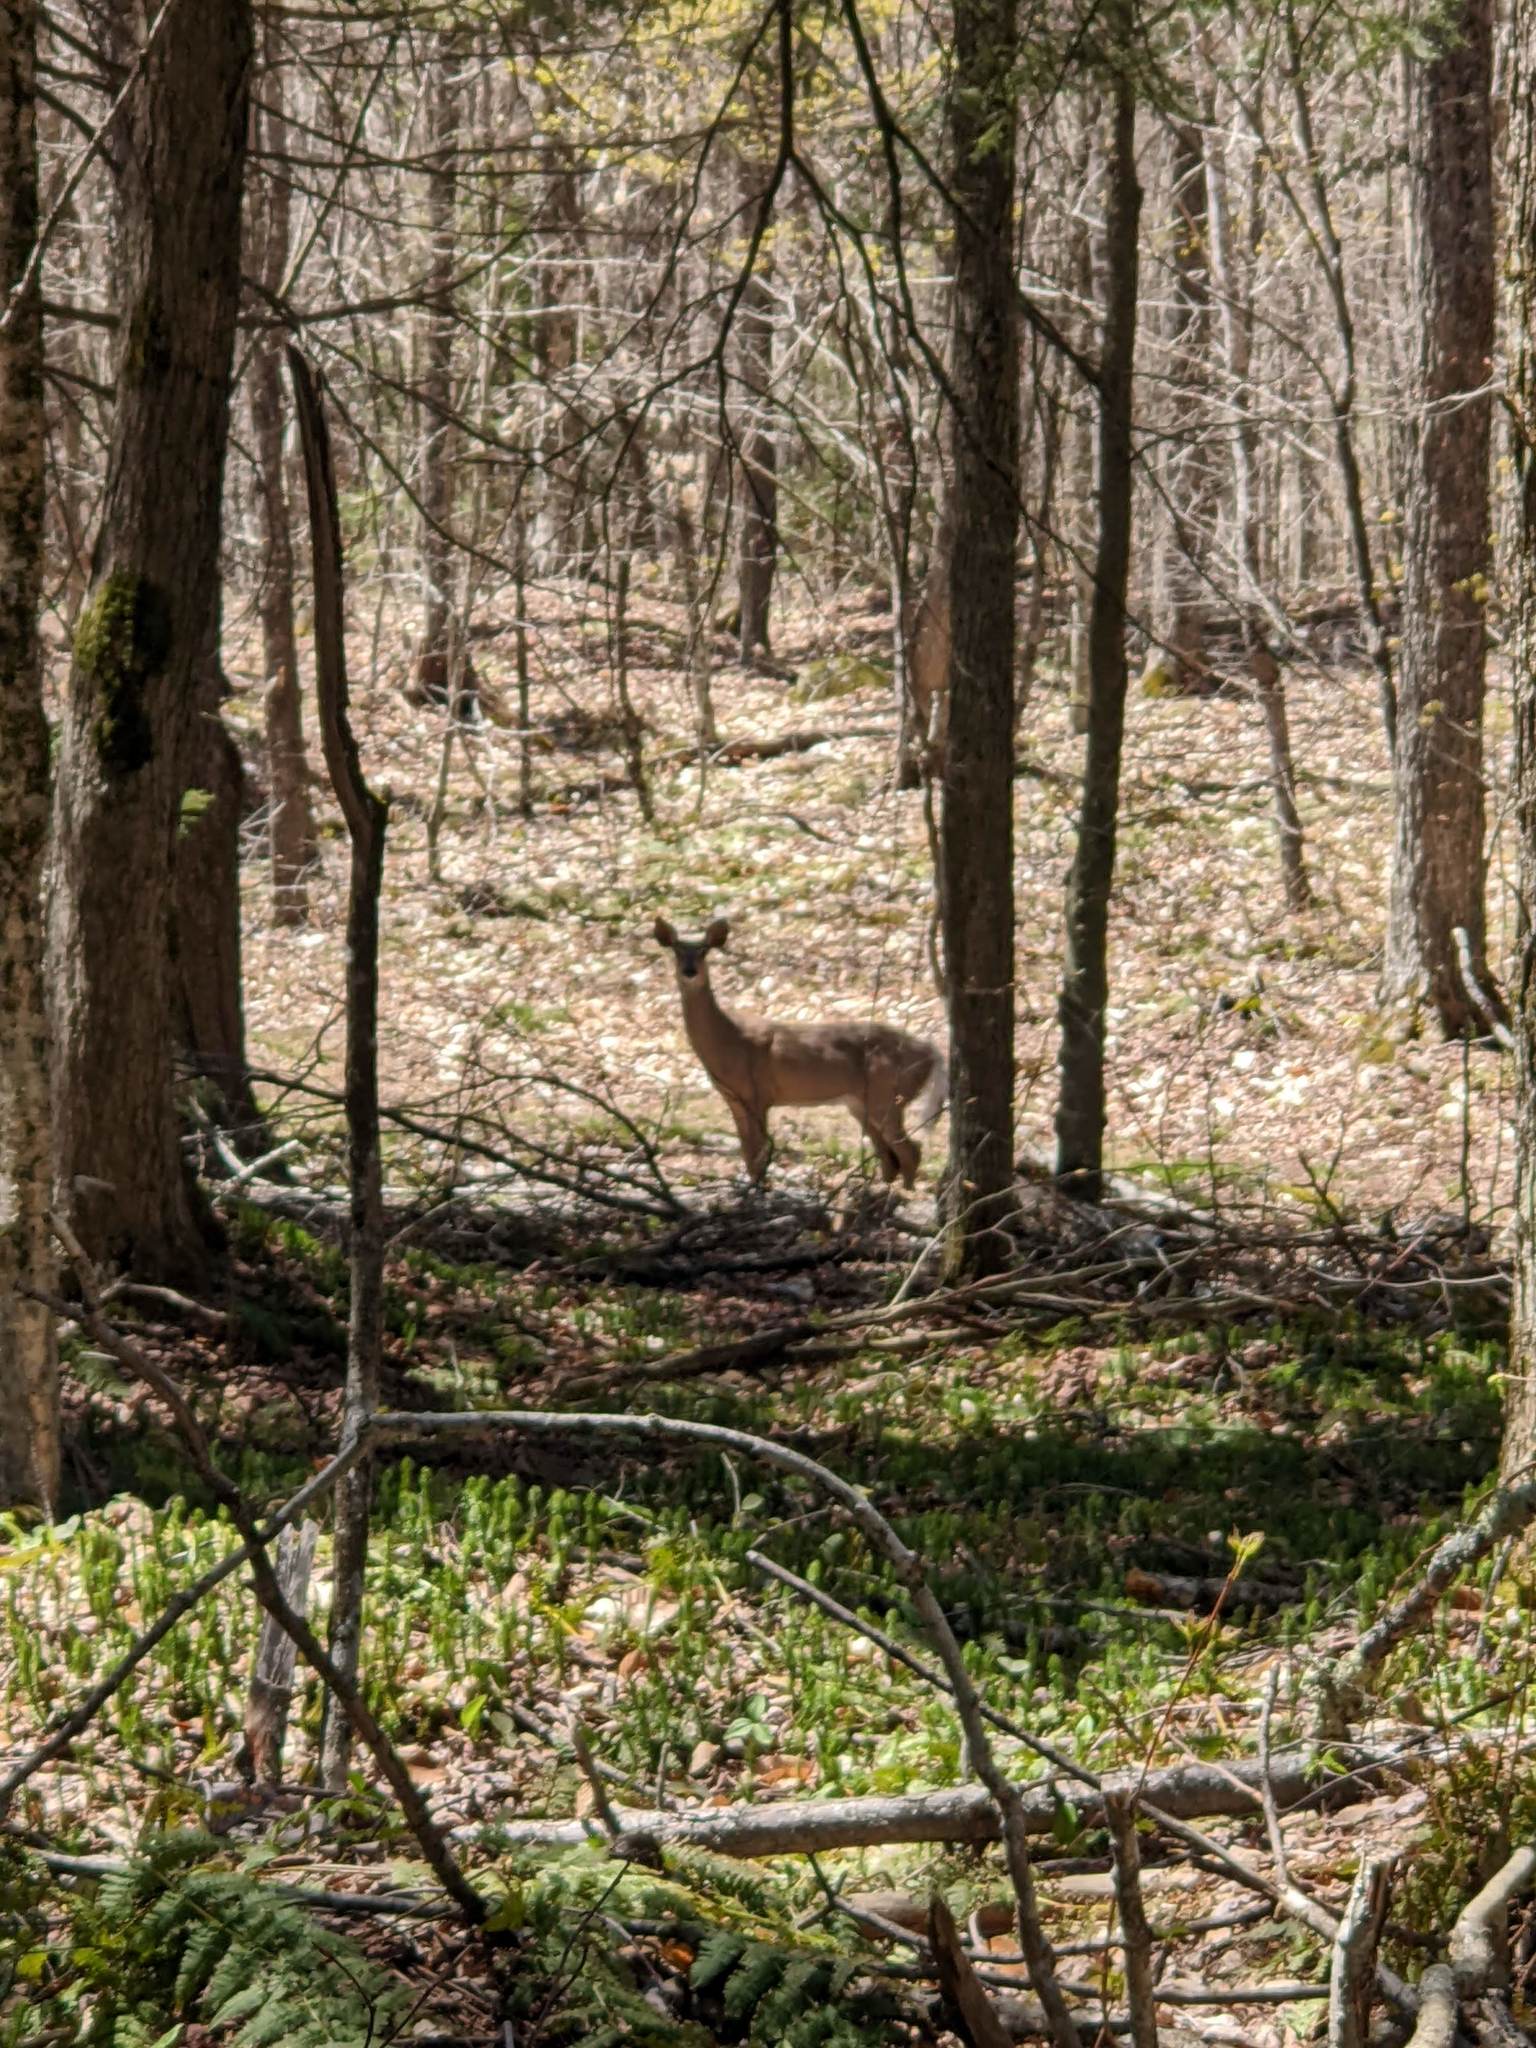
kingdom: Animalia
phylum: Chordata
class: Mammalia
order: Artiodactyla
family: Cervidae
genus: Odocoileus
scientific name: Odocoileus virginianus
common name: White-tailed deer
